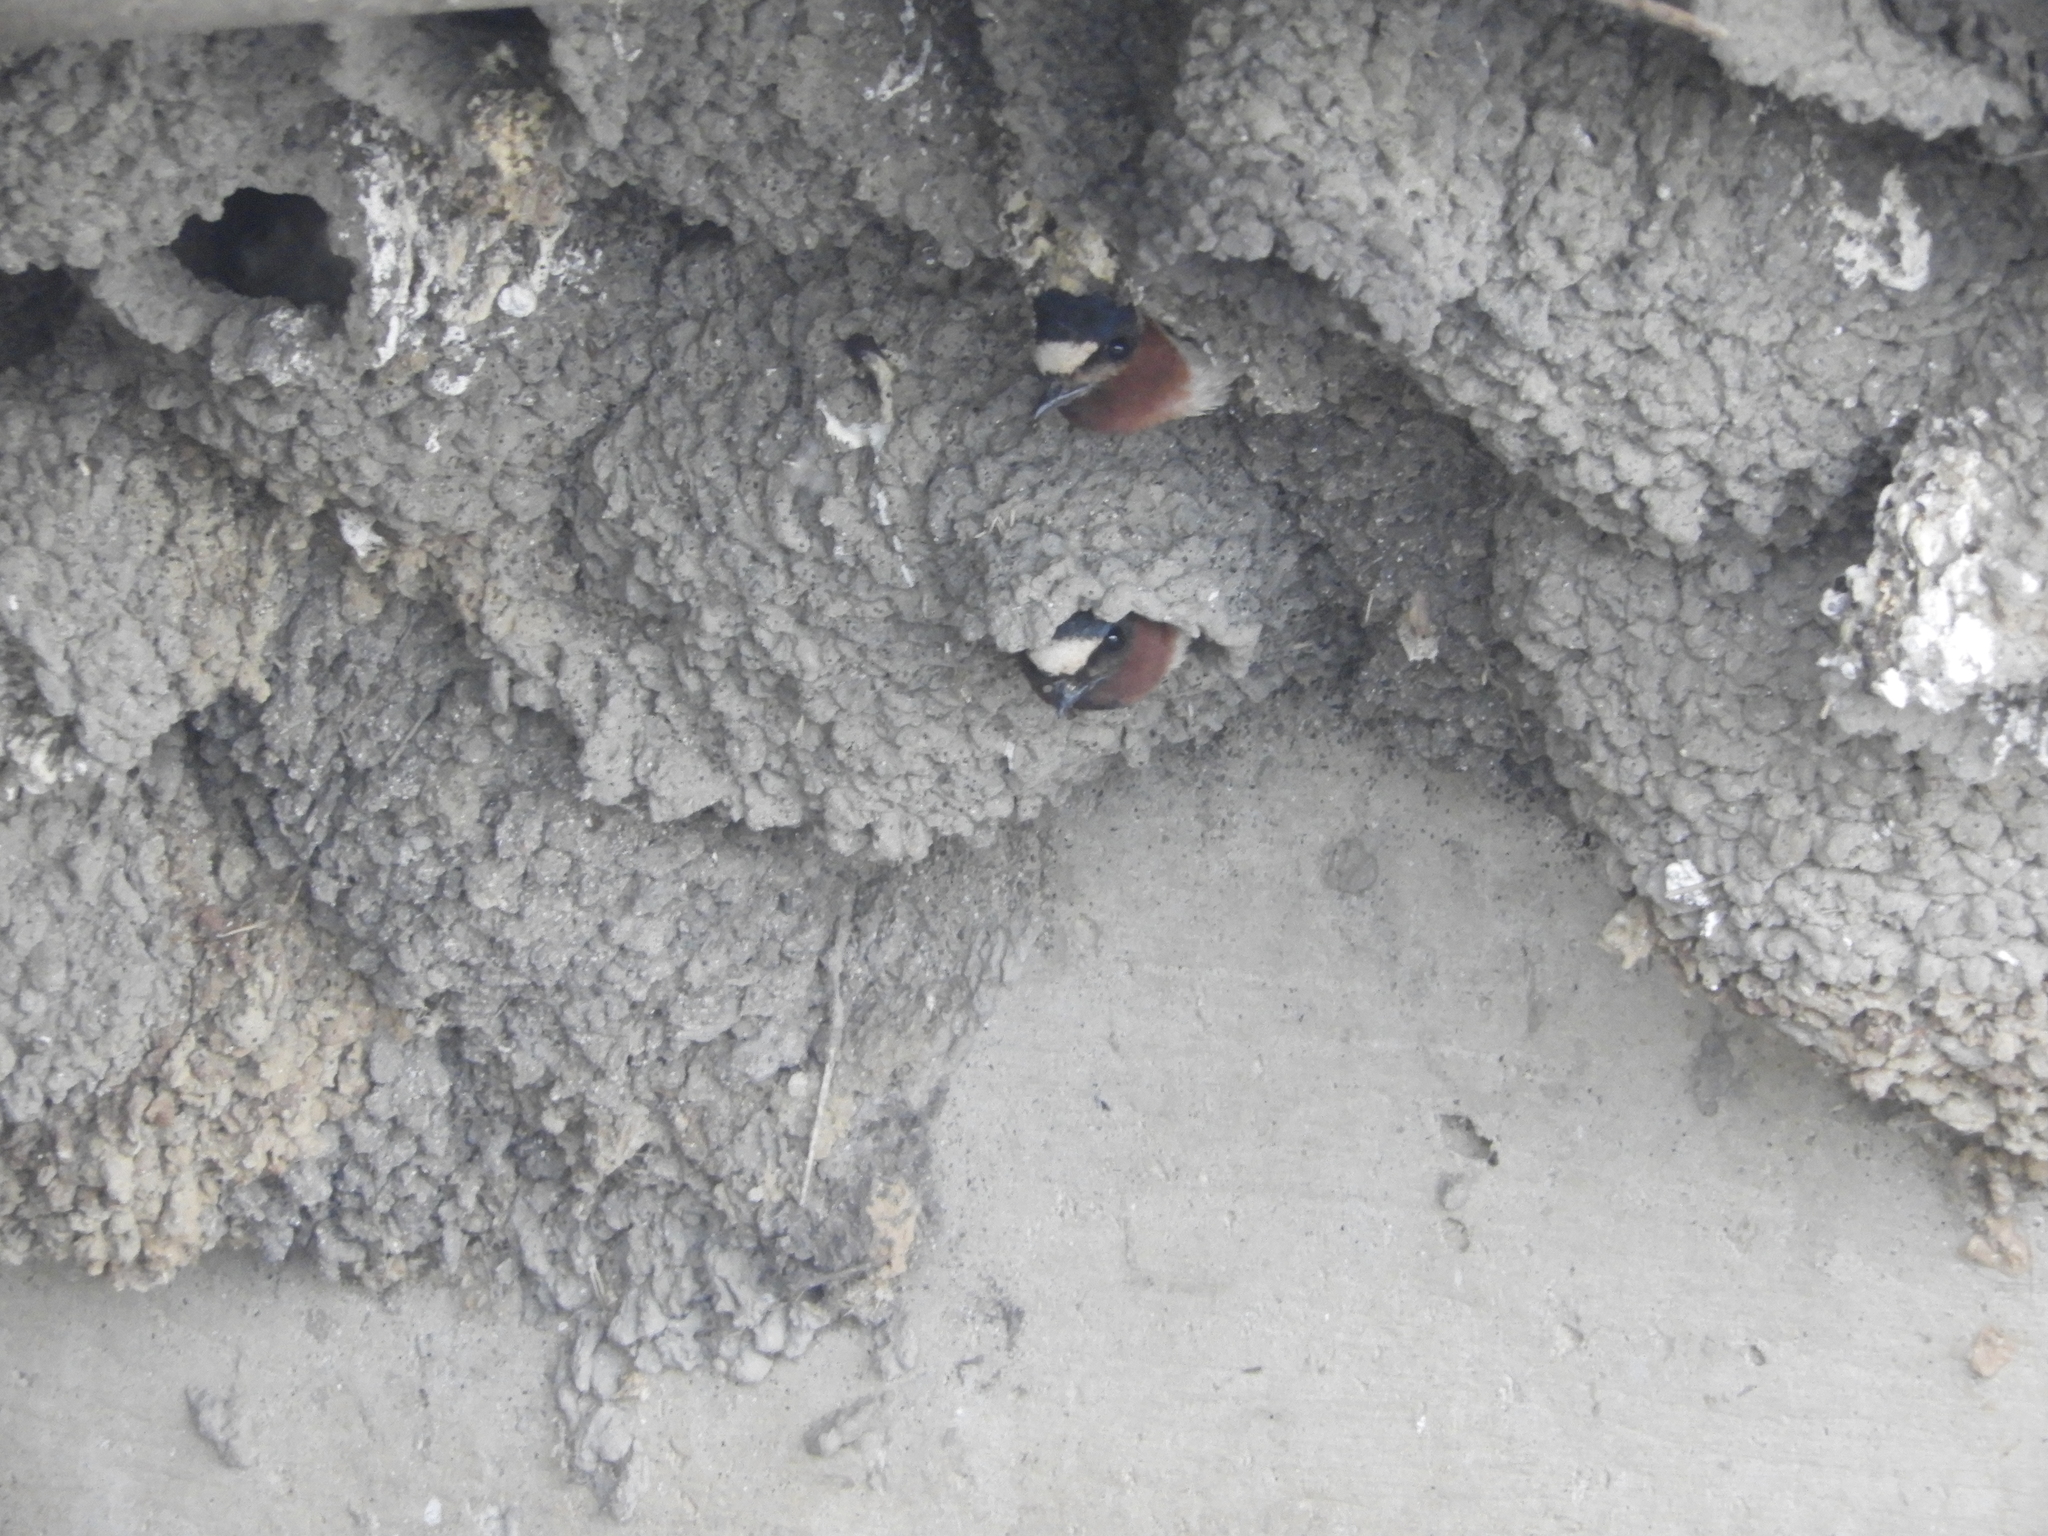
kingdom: Animalia
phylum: Chordata
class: Aves
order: Passeriformes
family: Hirundinidae
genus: Petrochelidon
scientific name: Petrochelidon pyrrhonota
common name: American cliff swallow
